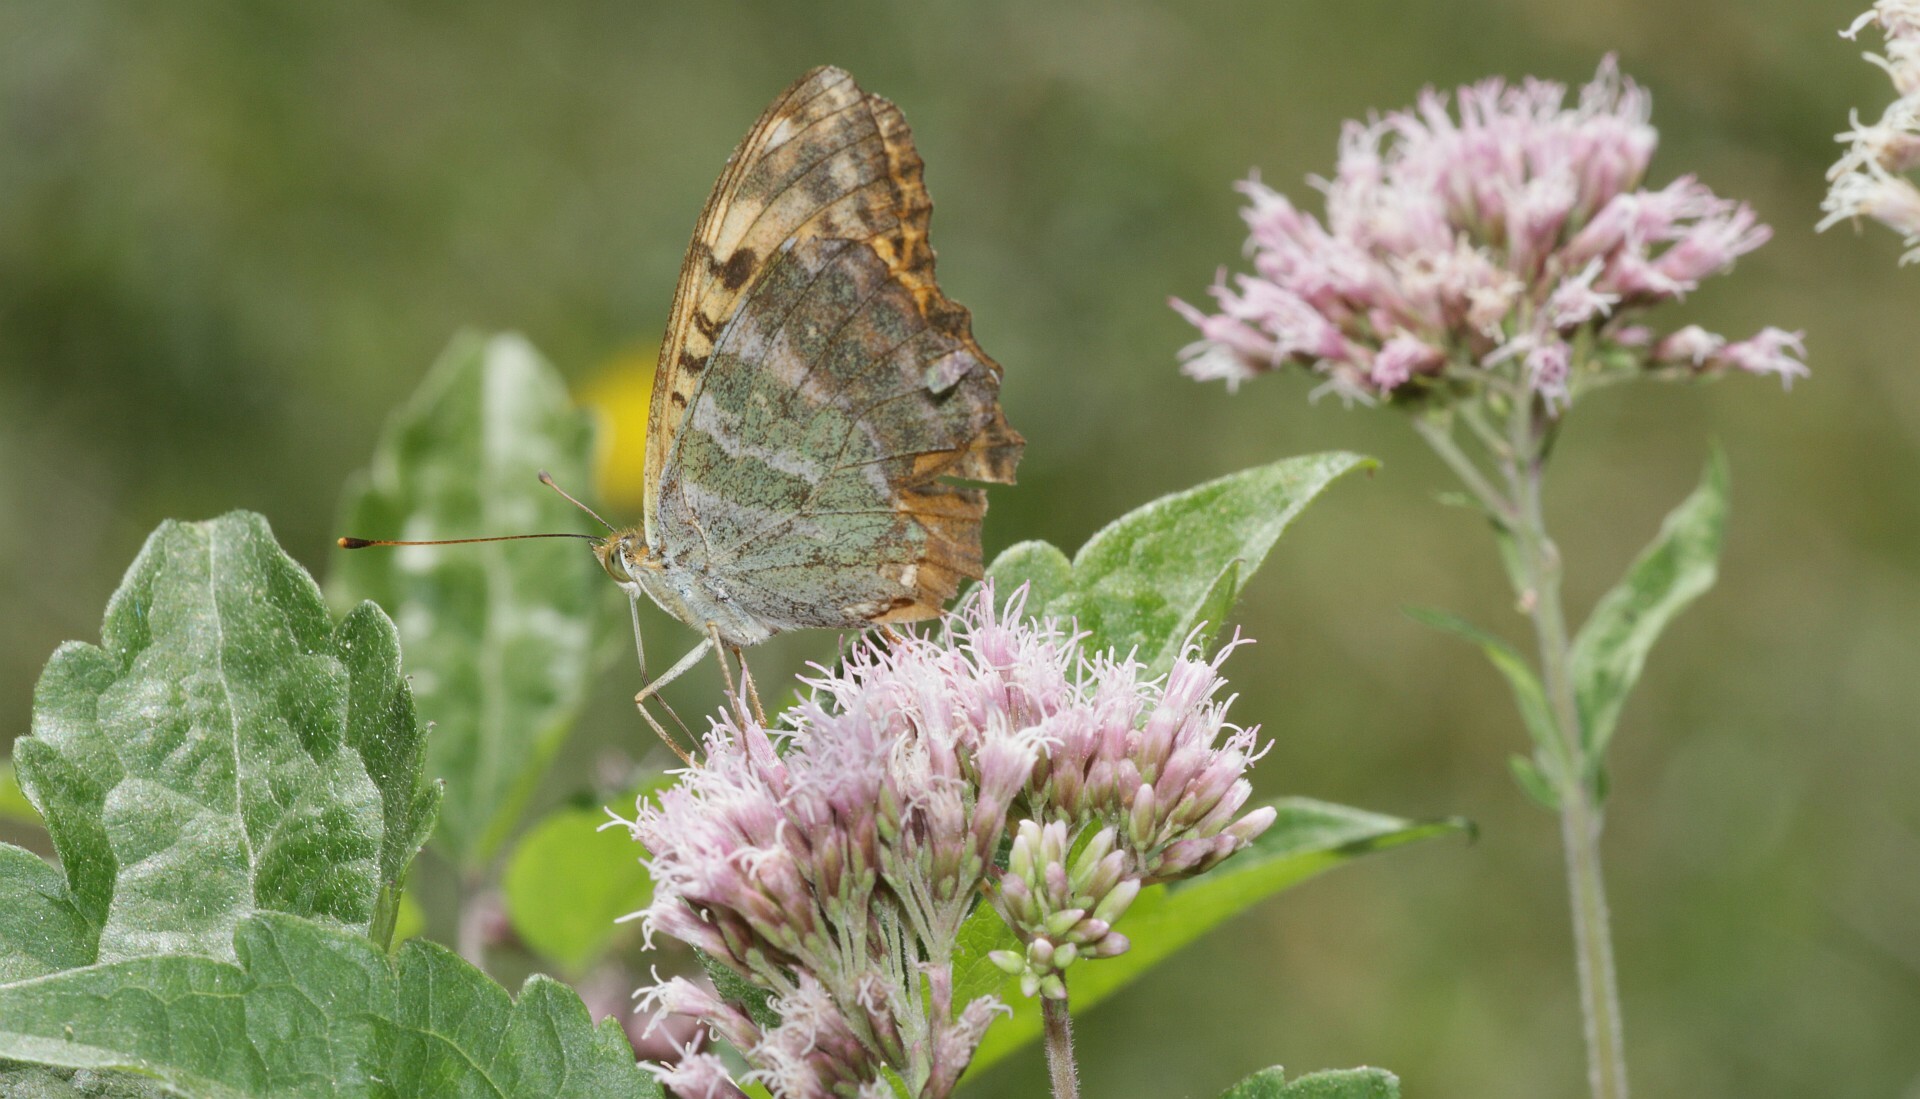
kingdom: Animalia
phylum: Arthropoda
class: Insecta
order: Lepidoptera
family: Nymphalidae
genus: Argynnis
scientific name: Argynnis paphia
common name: Silver-washed fritillary
